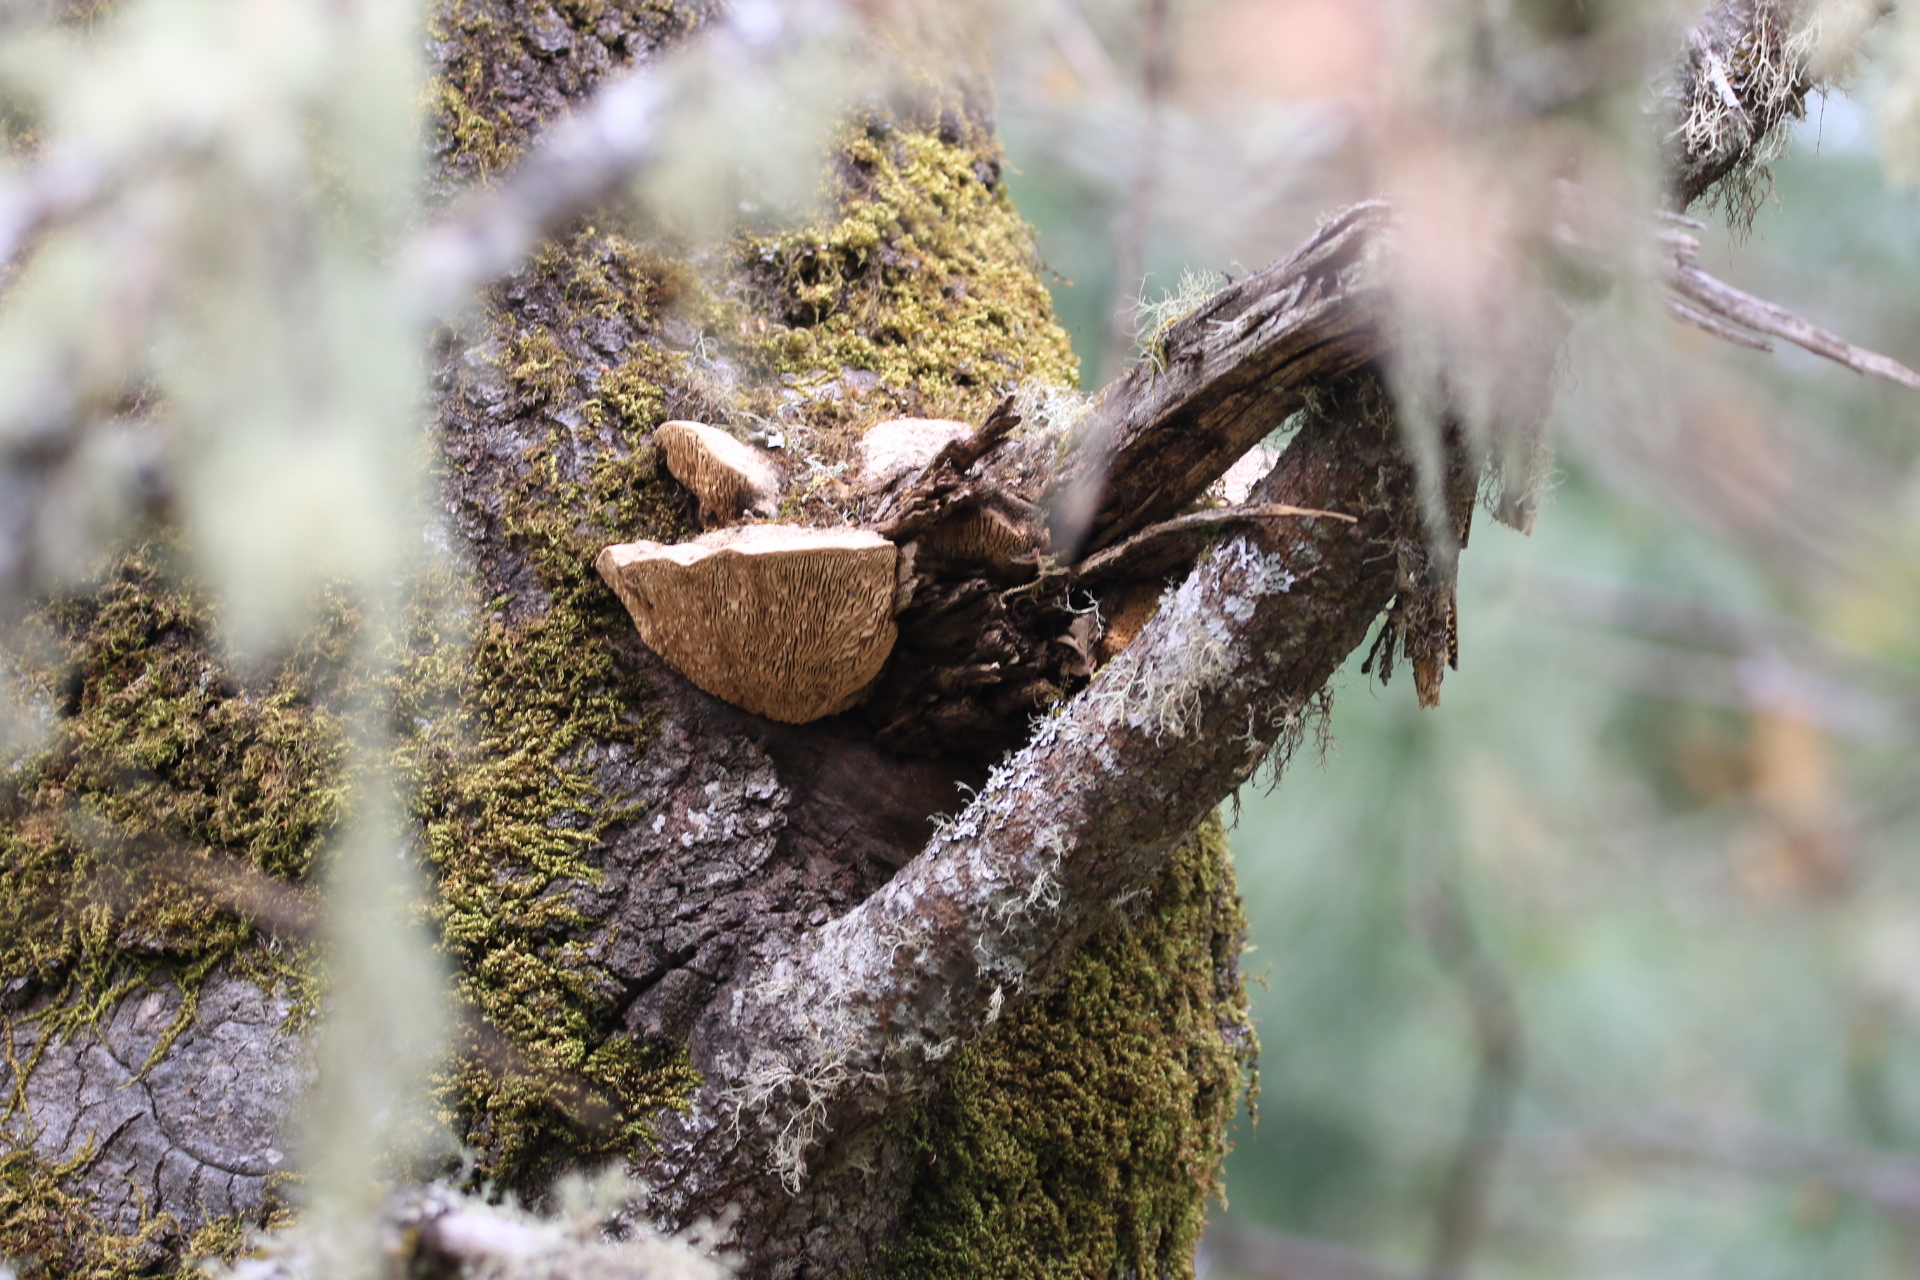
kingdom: Fungi
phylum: Basidiomycota
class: Agaricomycetes
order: Polyporales
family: Fomitopsidaceae
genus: Fomitopsis
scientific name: Fomitopsis
